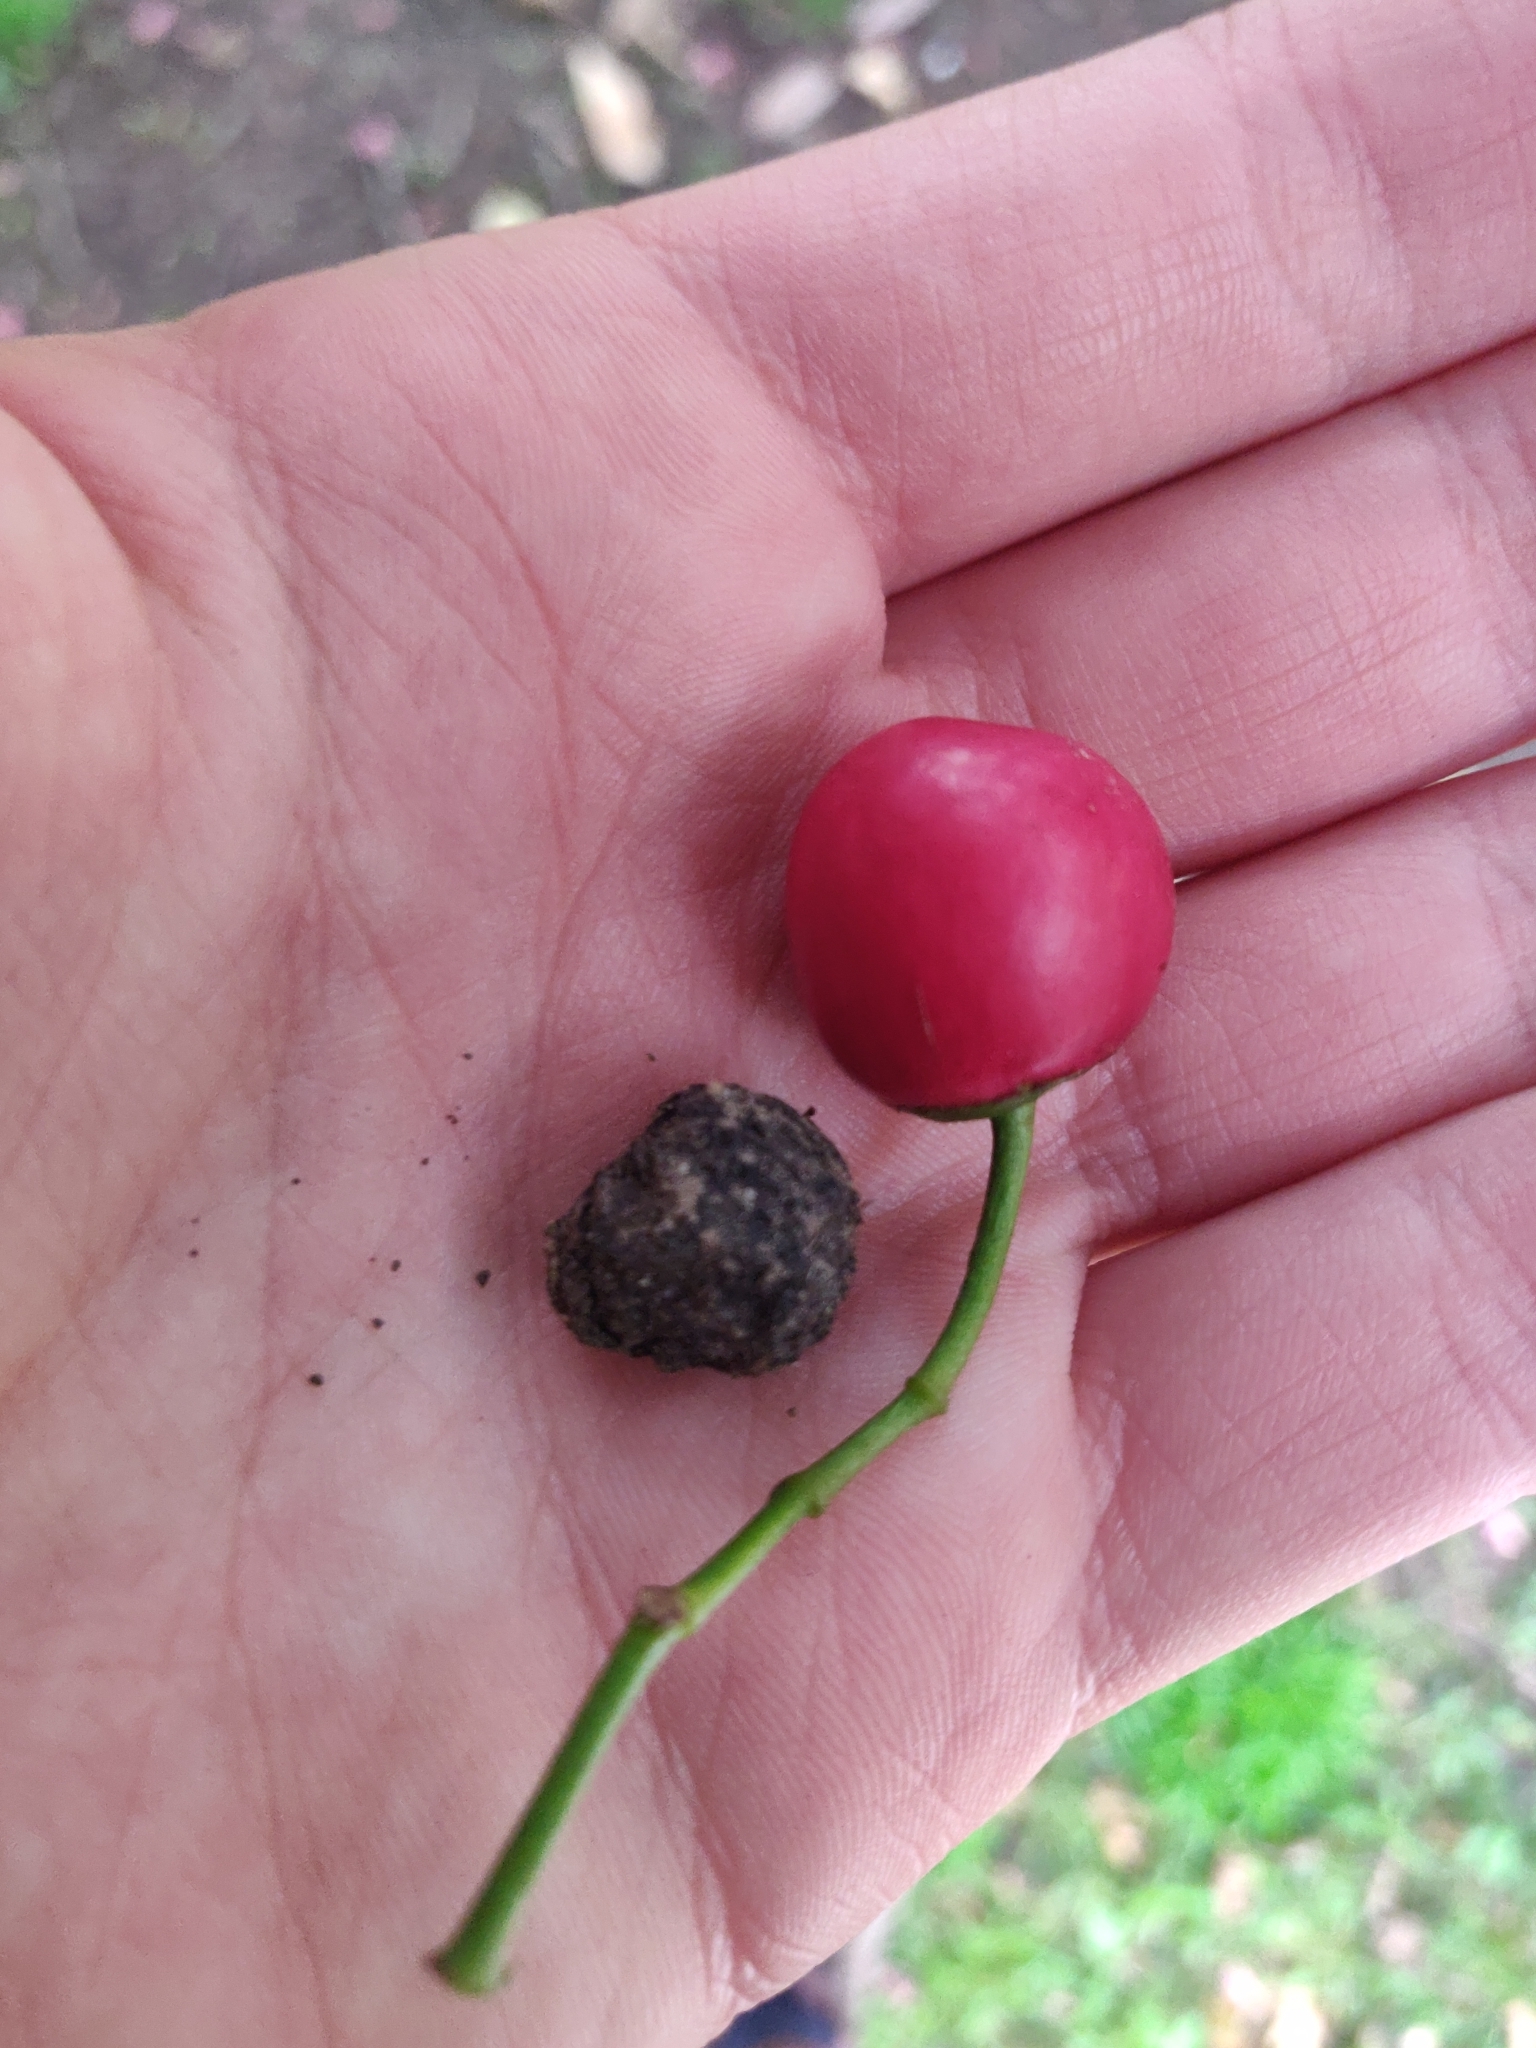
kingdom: Plantae
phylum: Tracheophyta
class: Magnoliopsida
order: Lamiales
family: Lamiaceae
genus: Vitex
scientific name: Vitex lucens
